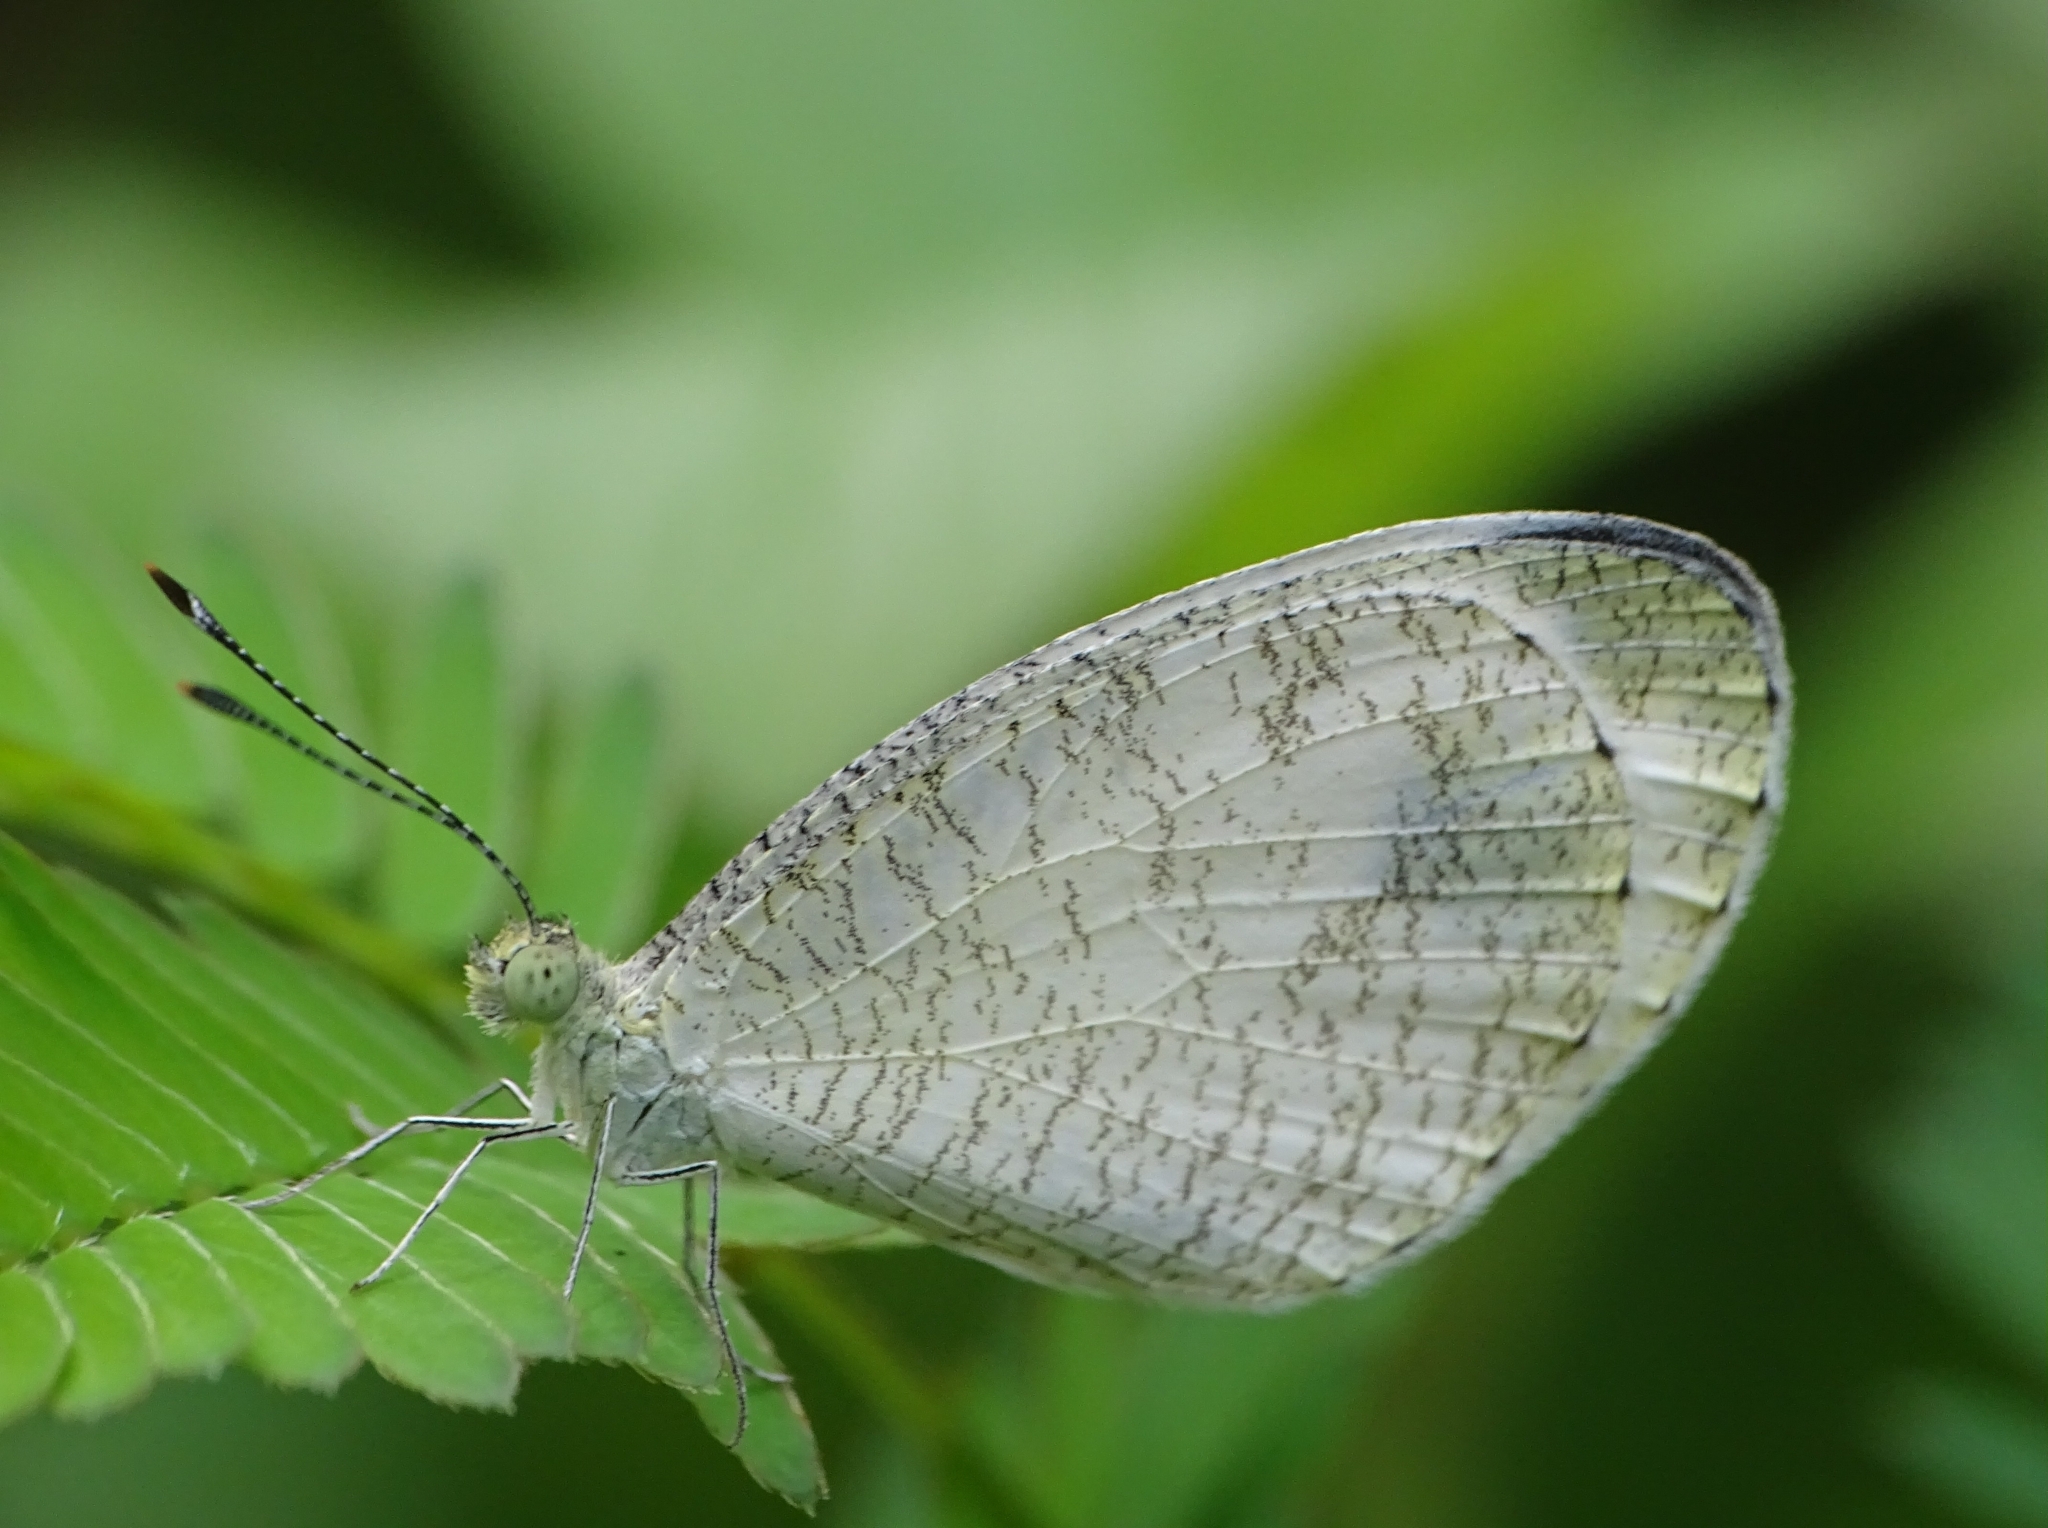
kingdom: Animalia
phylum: Arthropoda
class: Insecta
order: Lepidoptera
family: Pieridae
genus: Leptosia
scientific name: Leptosia nina
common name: Psyche
